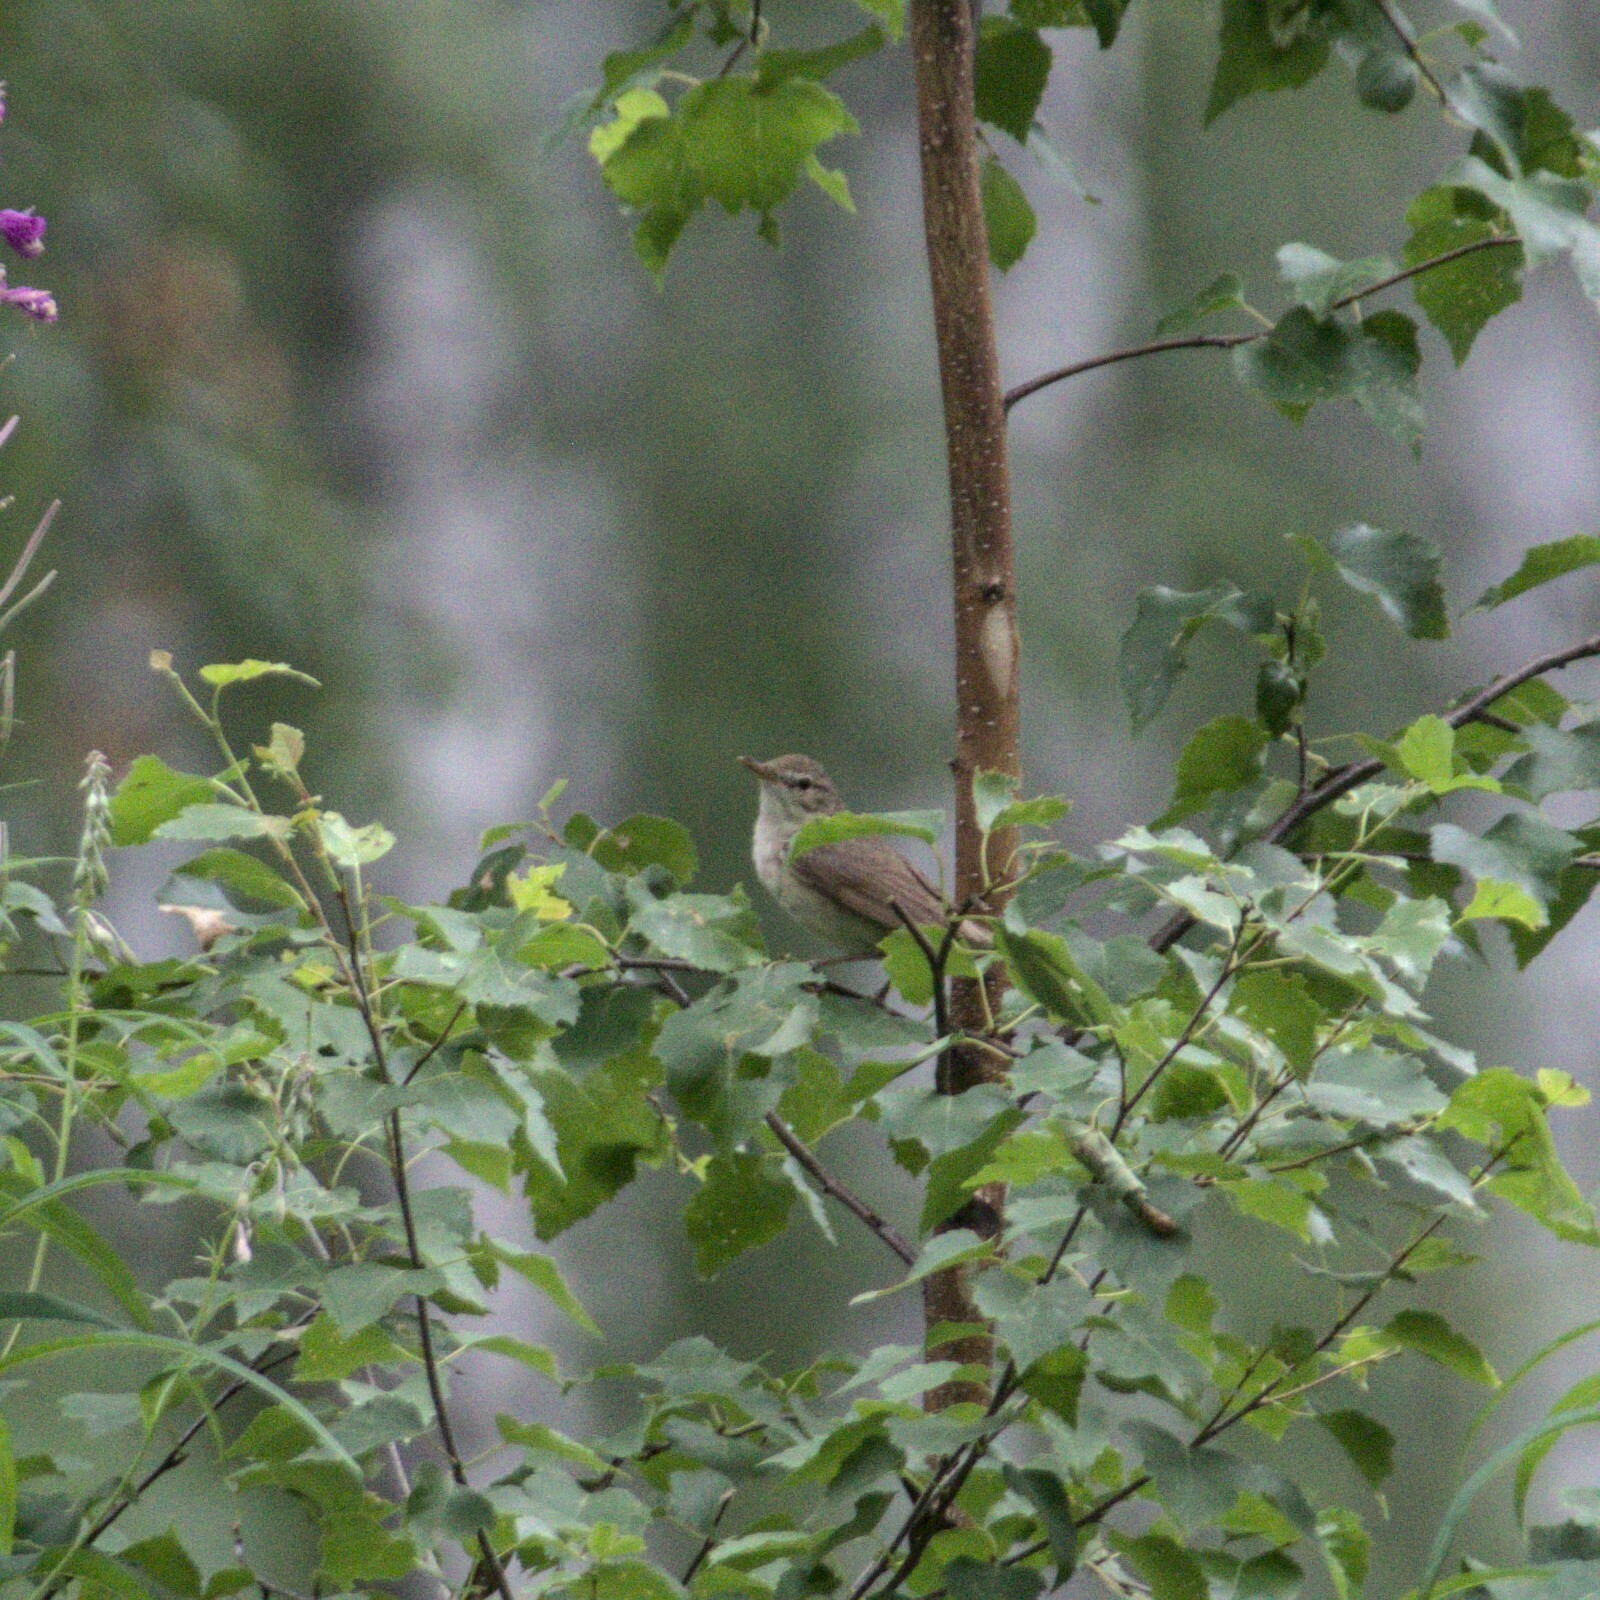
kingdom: Animalia
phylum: Chordata
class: Aves
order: Passeriformes
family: Acrocephalidae
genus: Acrocephalus
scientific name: Acrocephalus dumetorum
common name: Blyth's reed warbler
